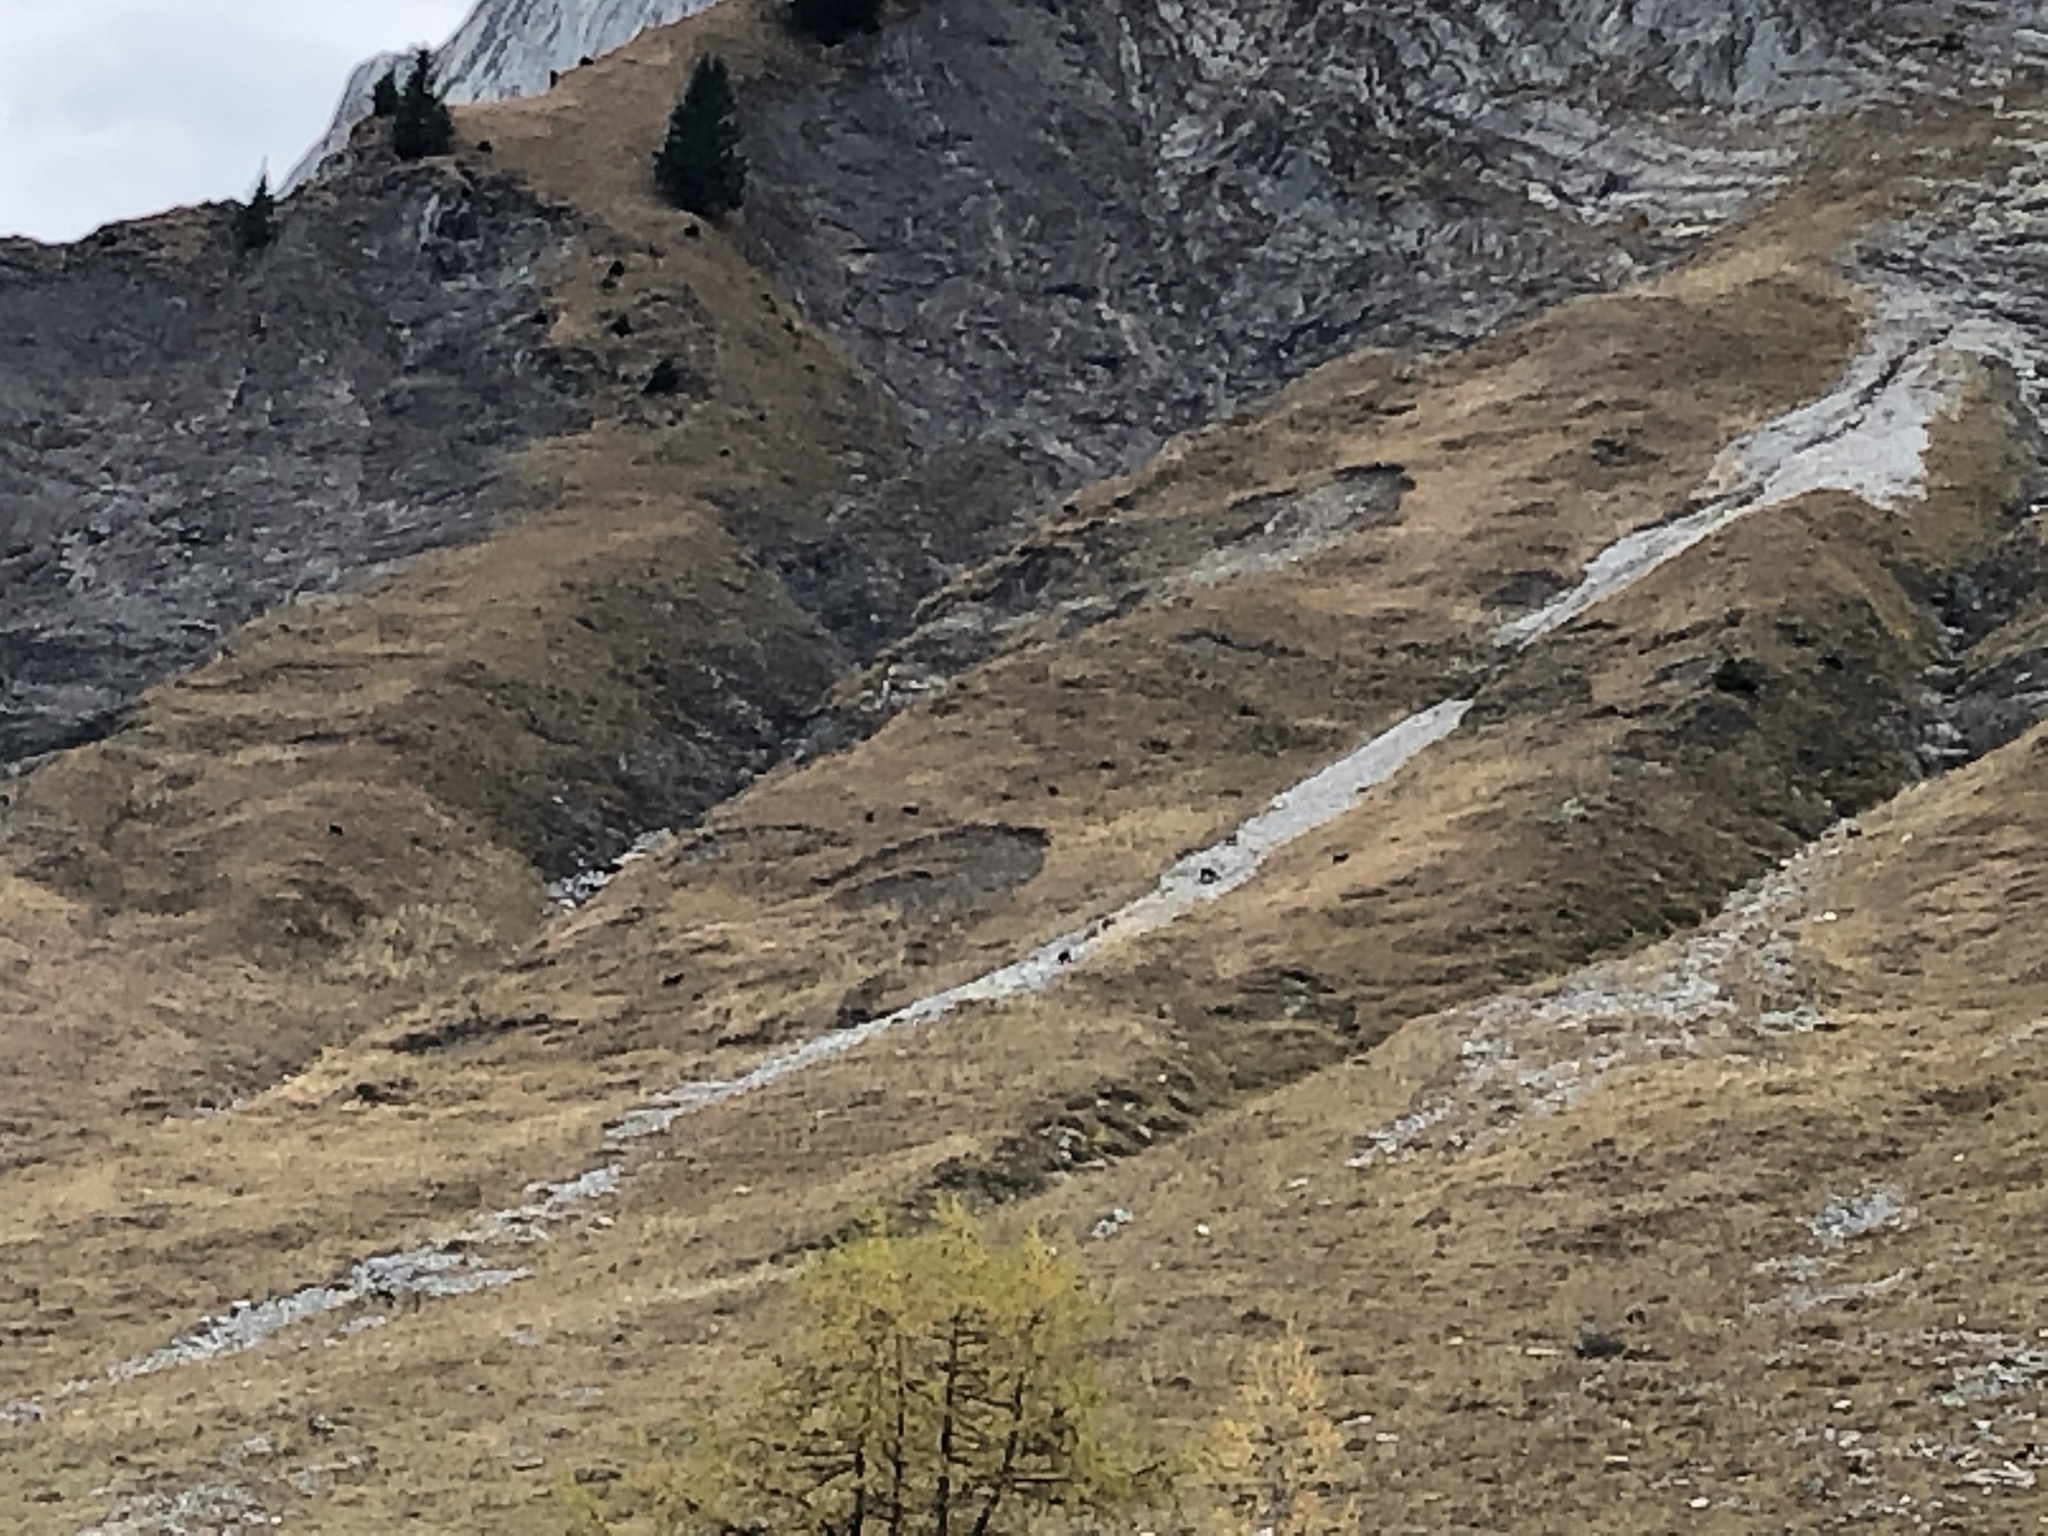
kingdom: Animalia
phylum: Chordata
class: Mammalia
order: Artiodactyla
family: Bovidae
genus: Rupicapra
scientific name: Rupicapra rupicapra
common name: Chamois
